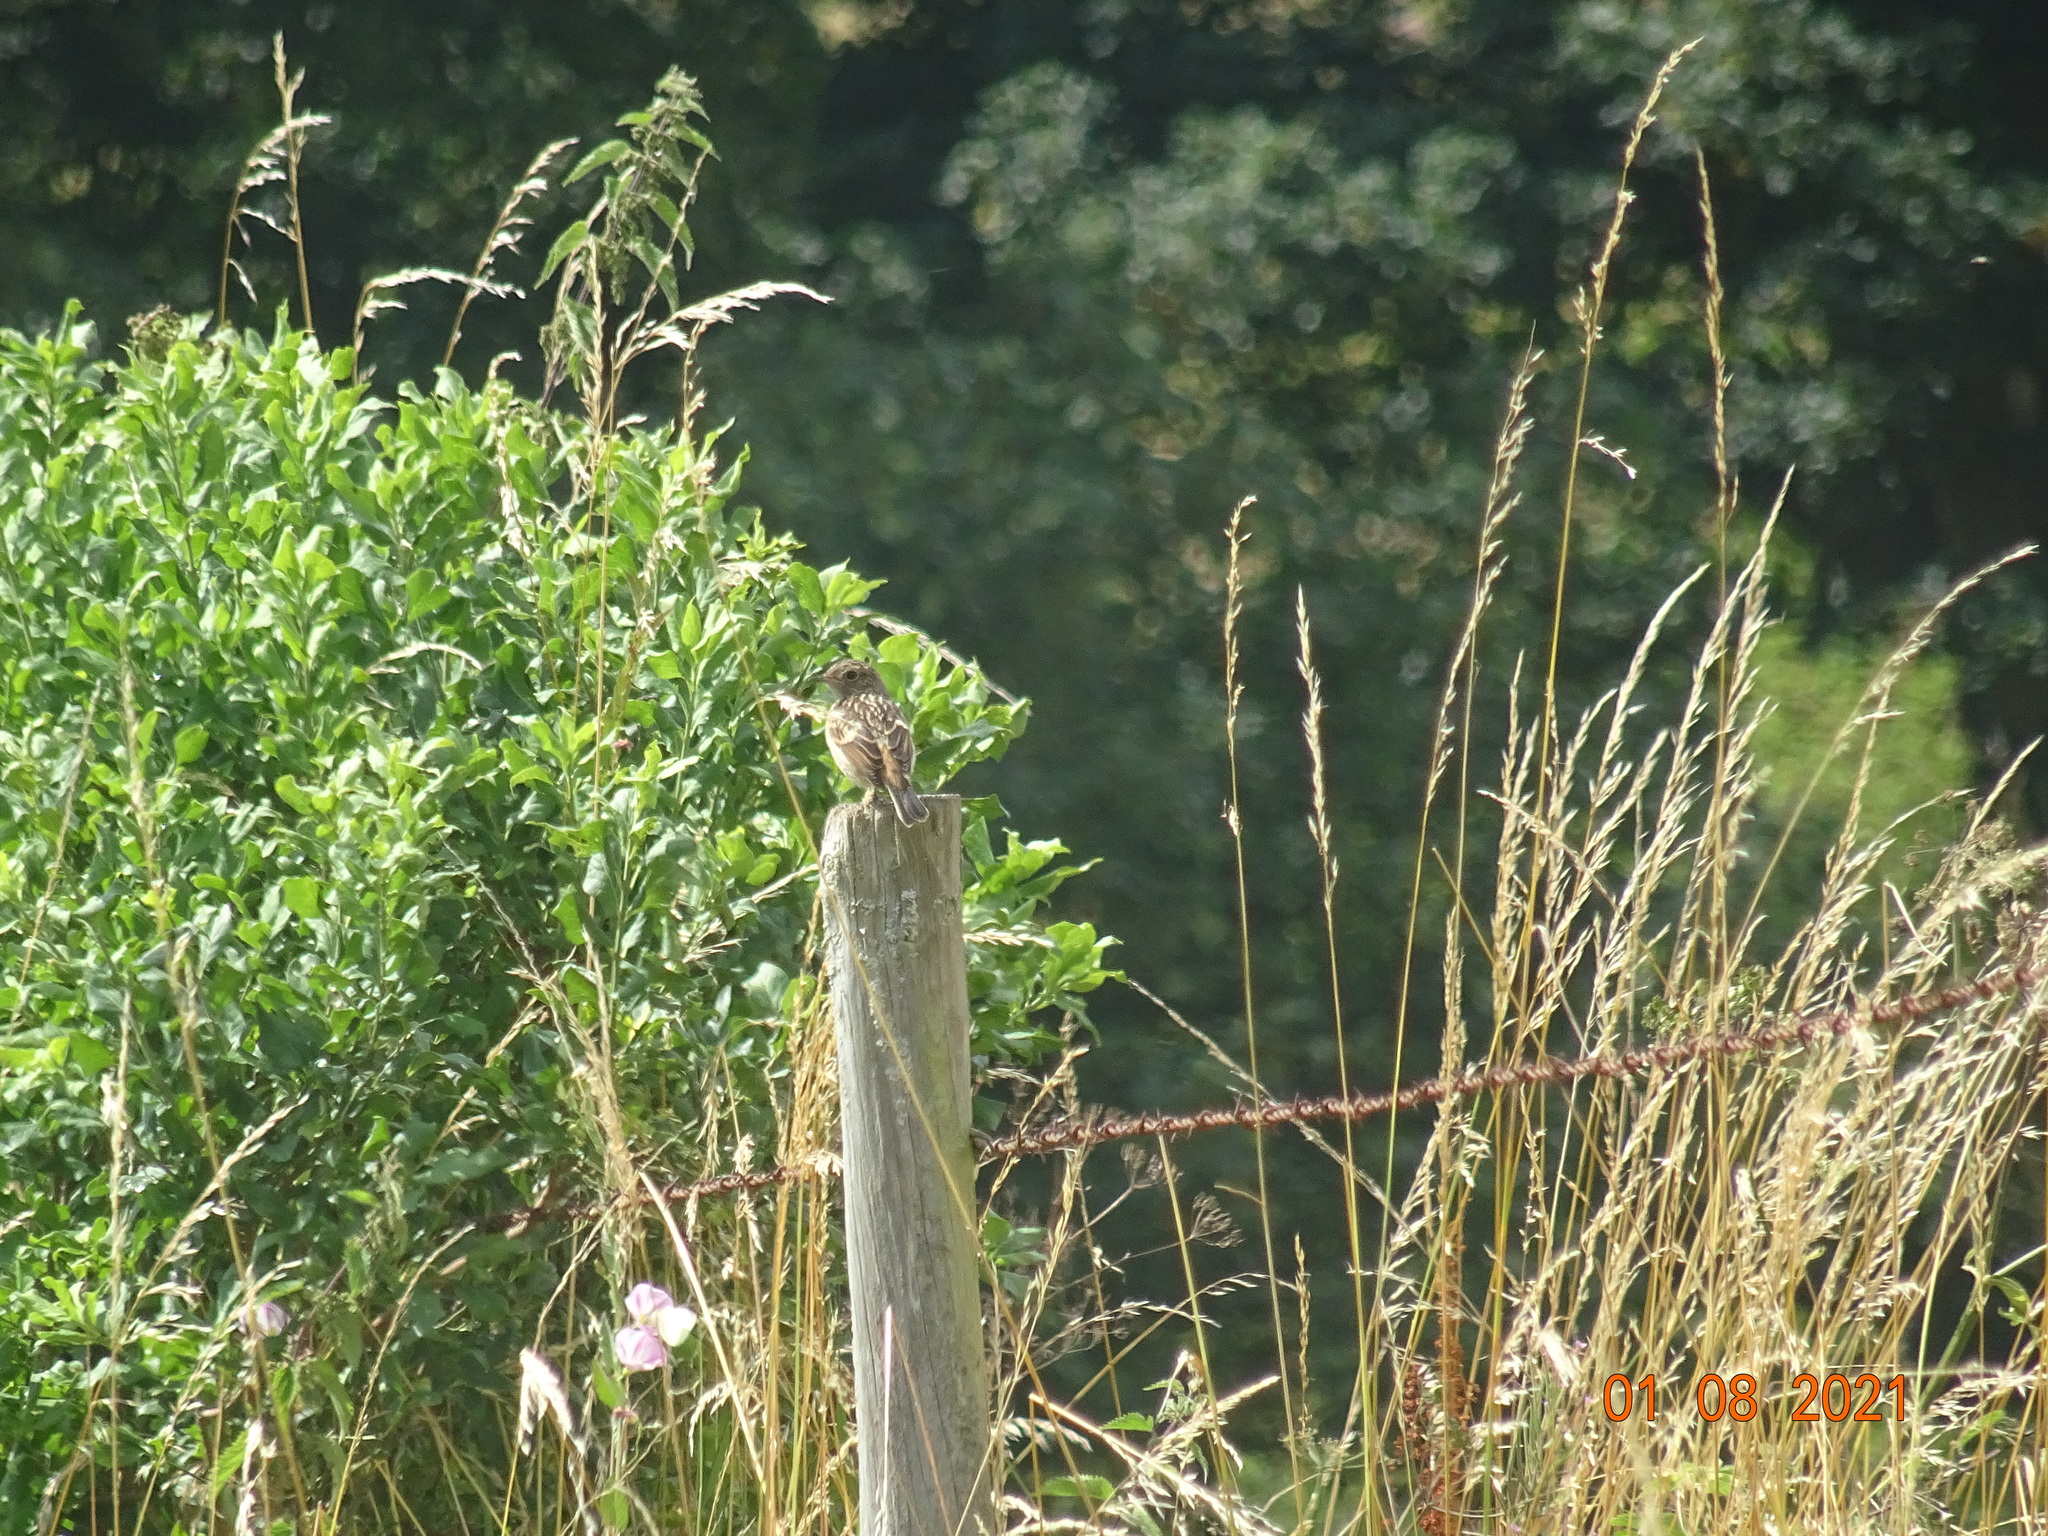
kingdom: Animalia
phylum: Chordata
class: Aves
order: Passeriformes
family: Muscicapidae
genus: Saxicola
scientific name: Saxicola rubicola
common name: European stonechat
